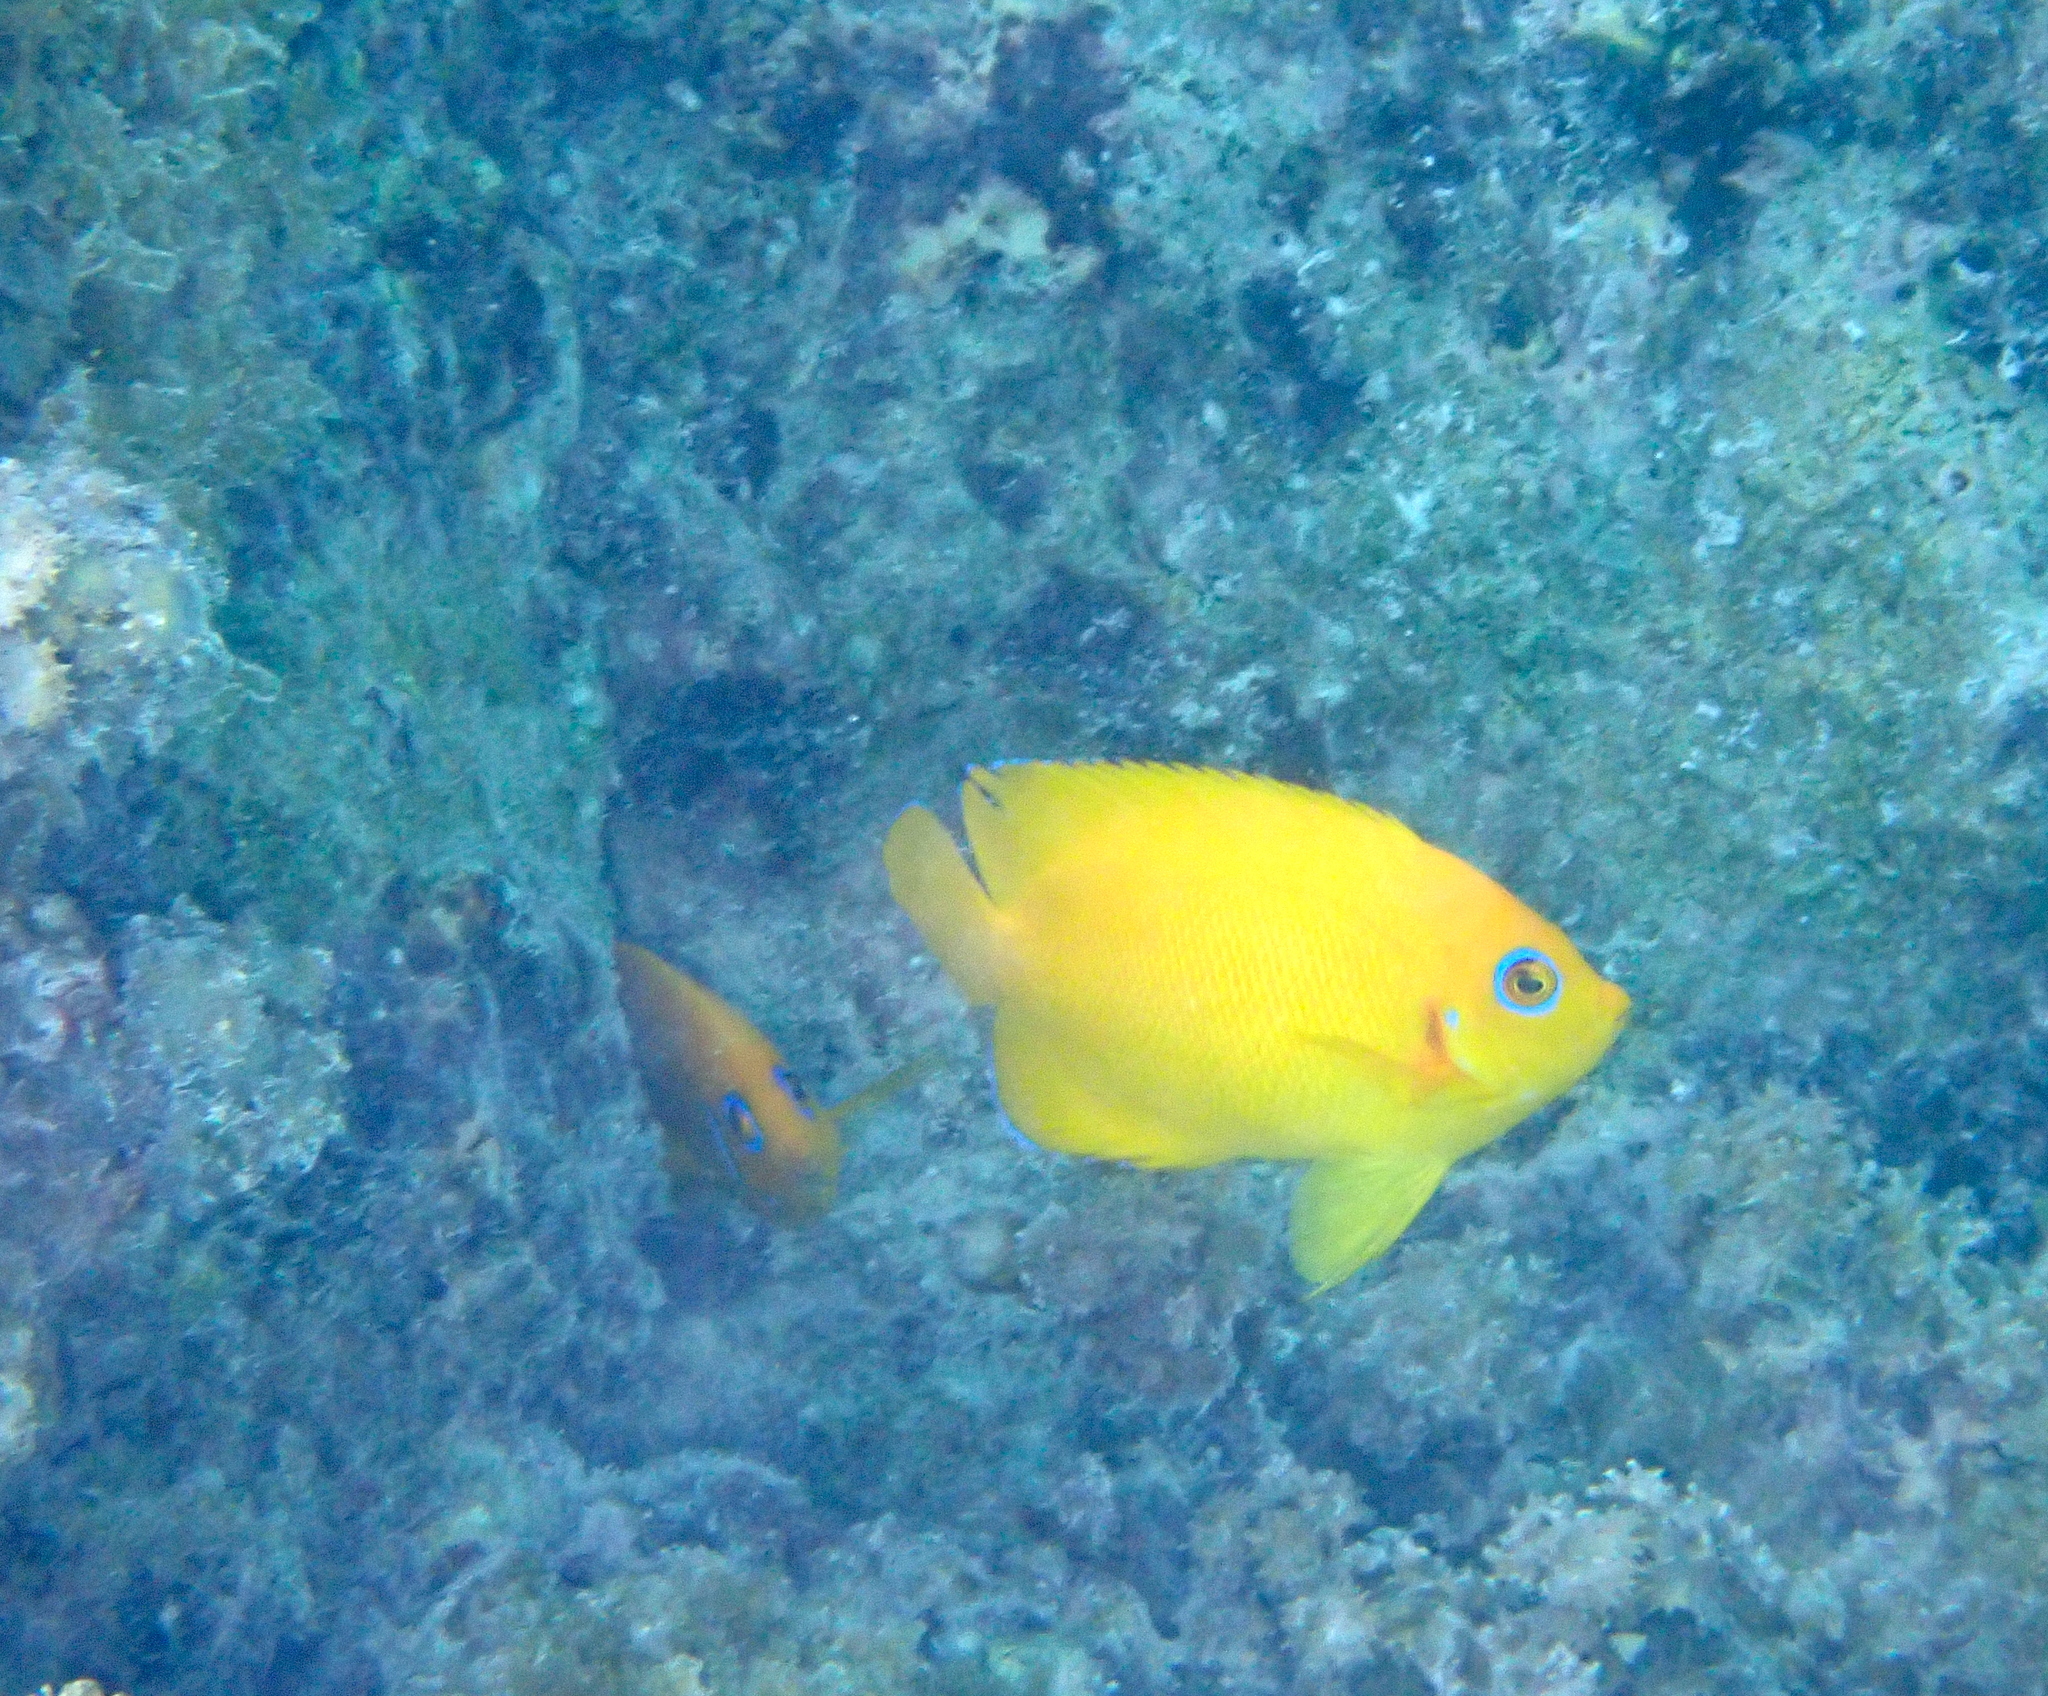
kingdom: Animalia
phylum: Chordata
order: Perciformes
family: Pomacanthidae
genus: Centropyge
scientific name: Centropyge flavissima
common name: Lemonpeel angelfish
